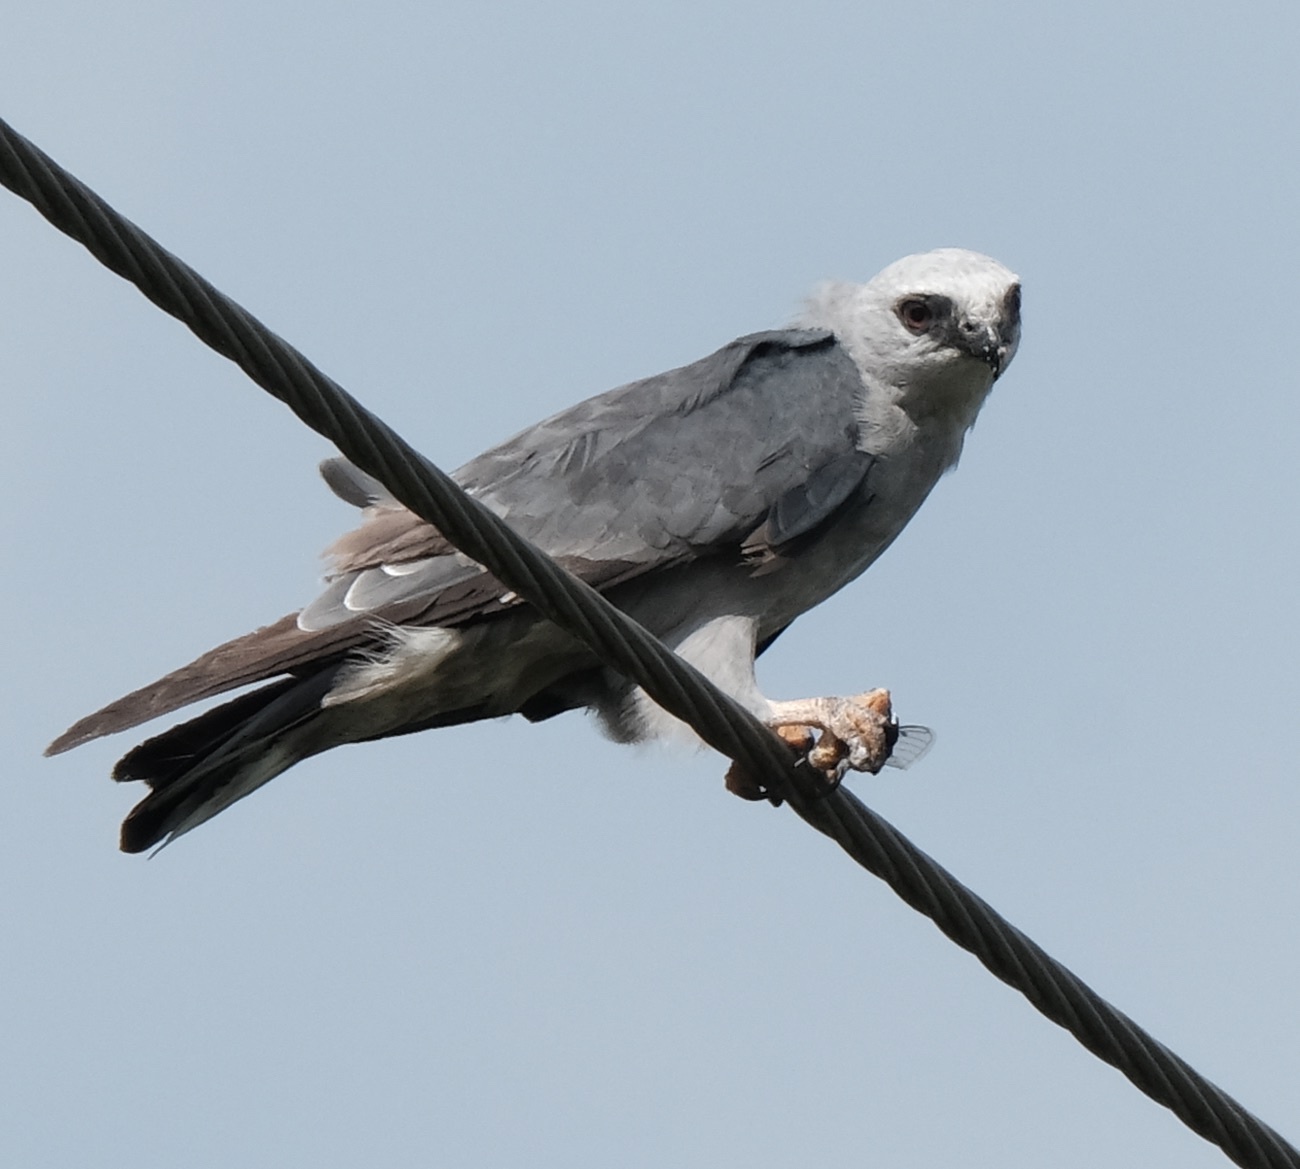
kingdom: Animalia
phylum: Chordata
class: Aves
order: Accipitriformes
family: Accipitridae
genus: Ictinia
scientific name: Ictinia mississippiensis
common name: Mississippi kite
